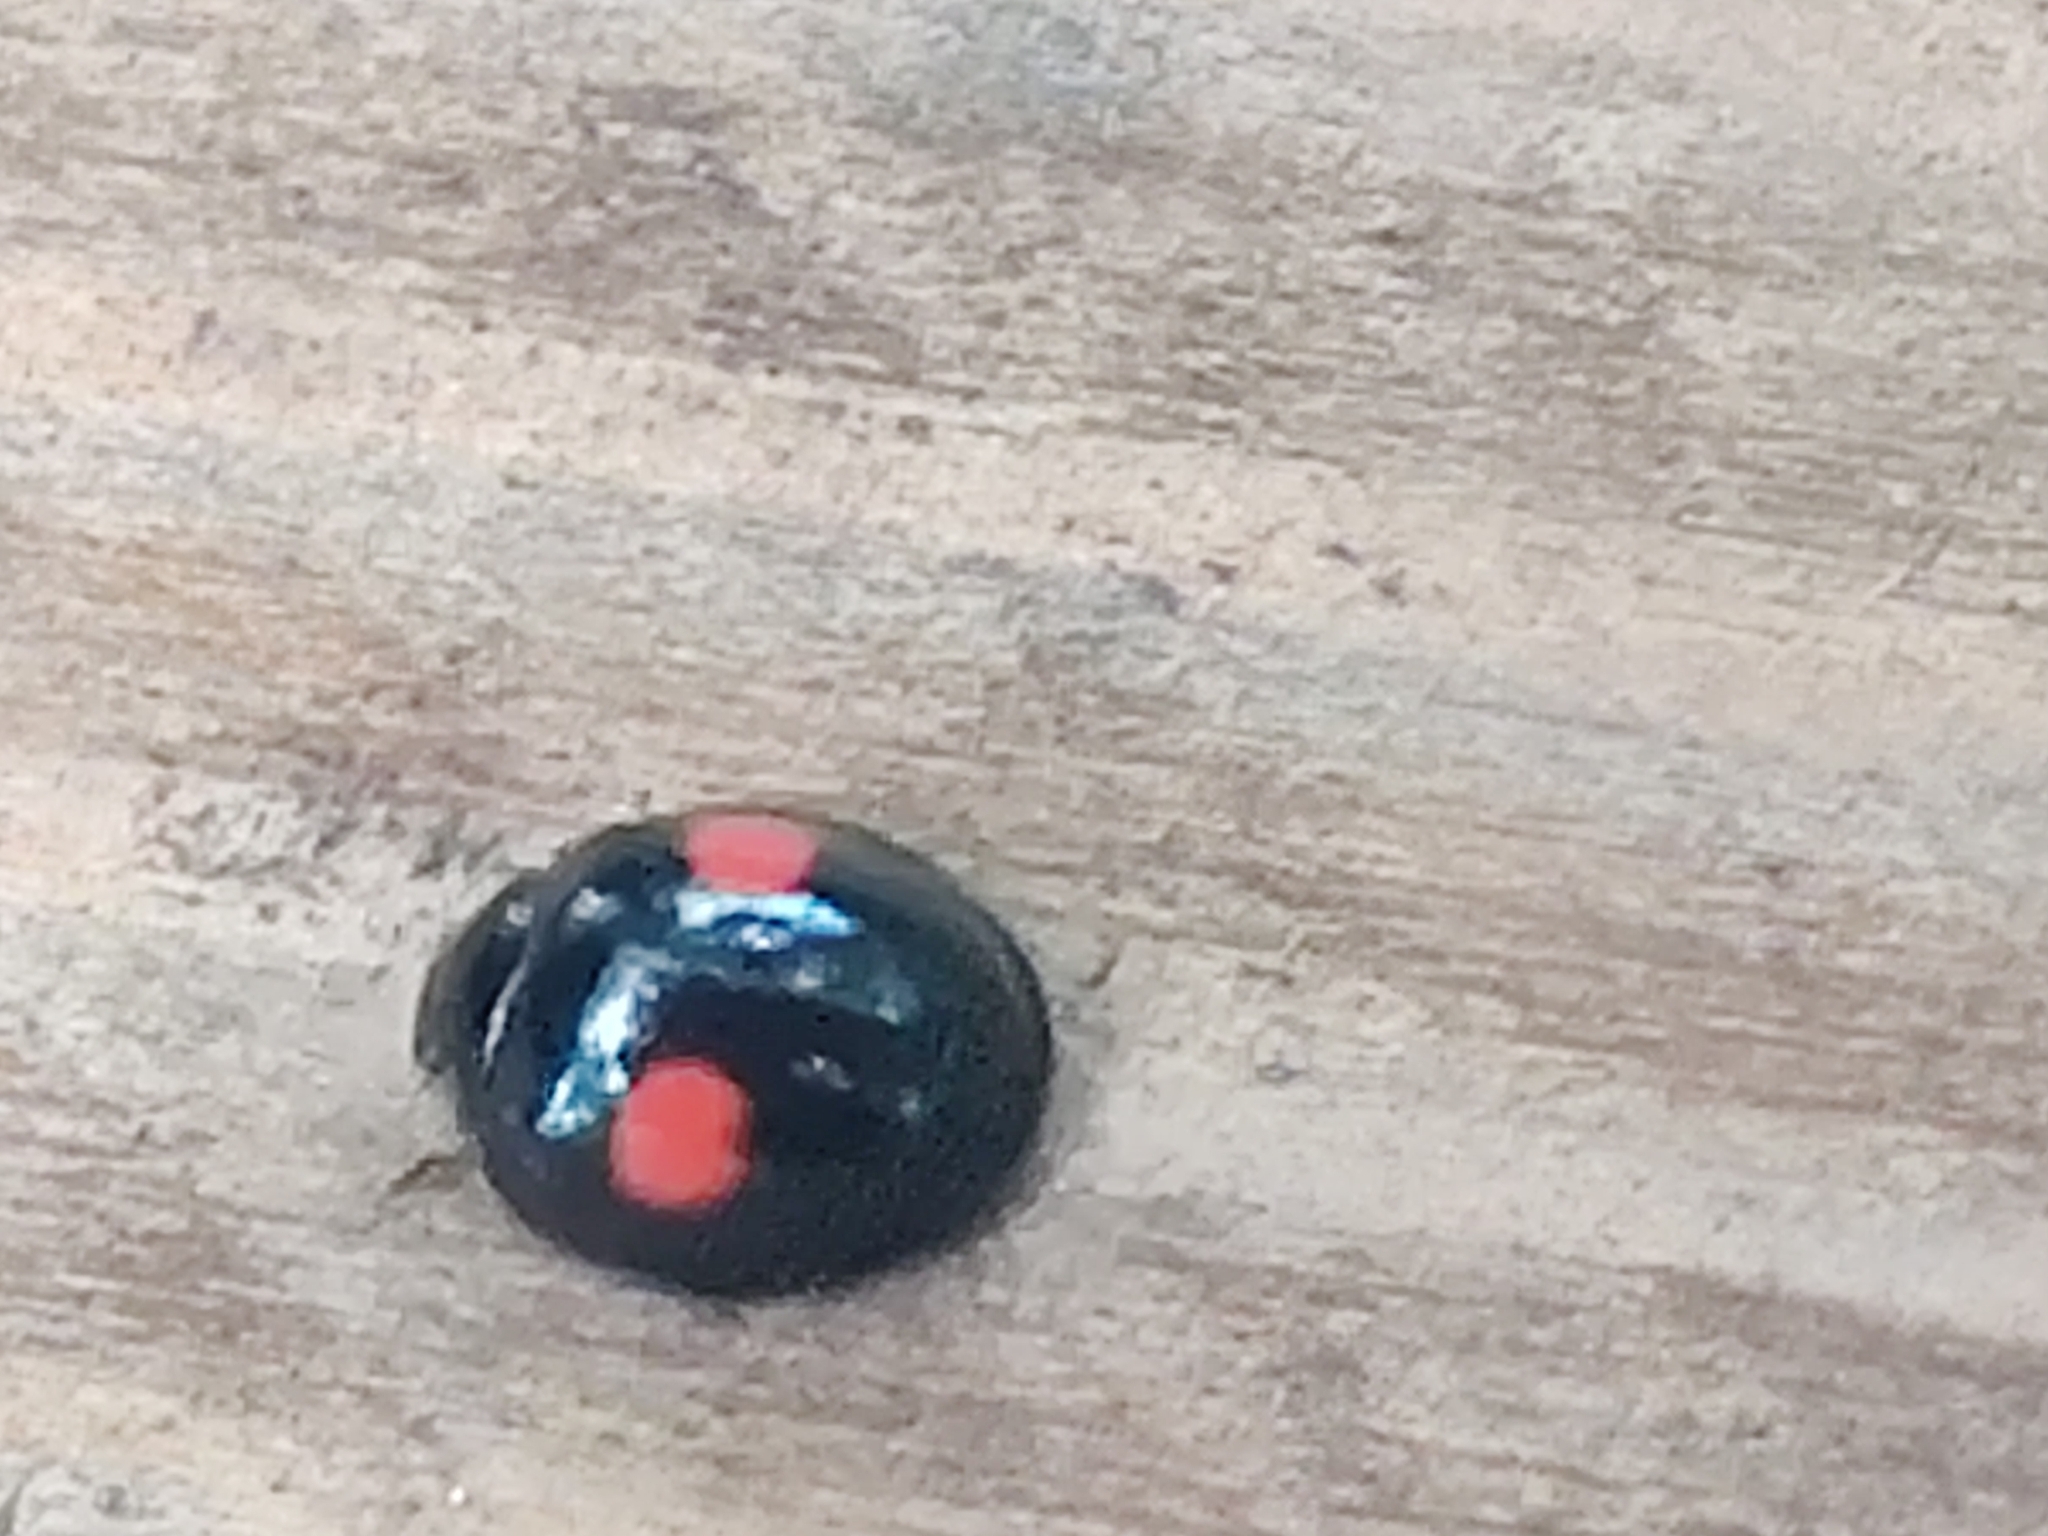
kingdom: Animalia
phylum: Arthropoda
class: Insecta
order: Coleoptera
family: Coccinellidae
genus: Chilocorus
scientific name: Chilocorus renipustulatus
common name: Kidney-spot ladybird
